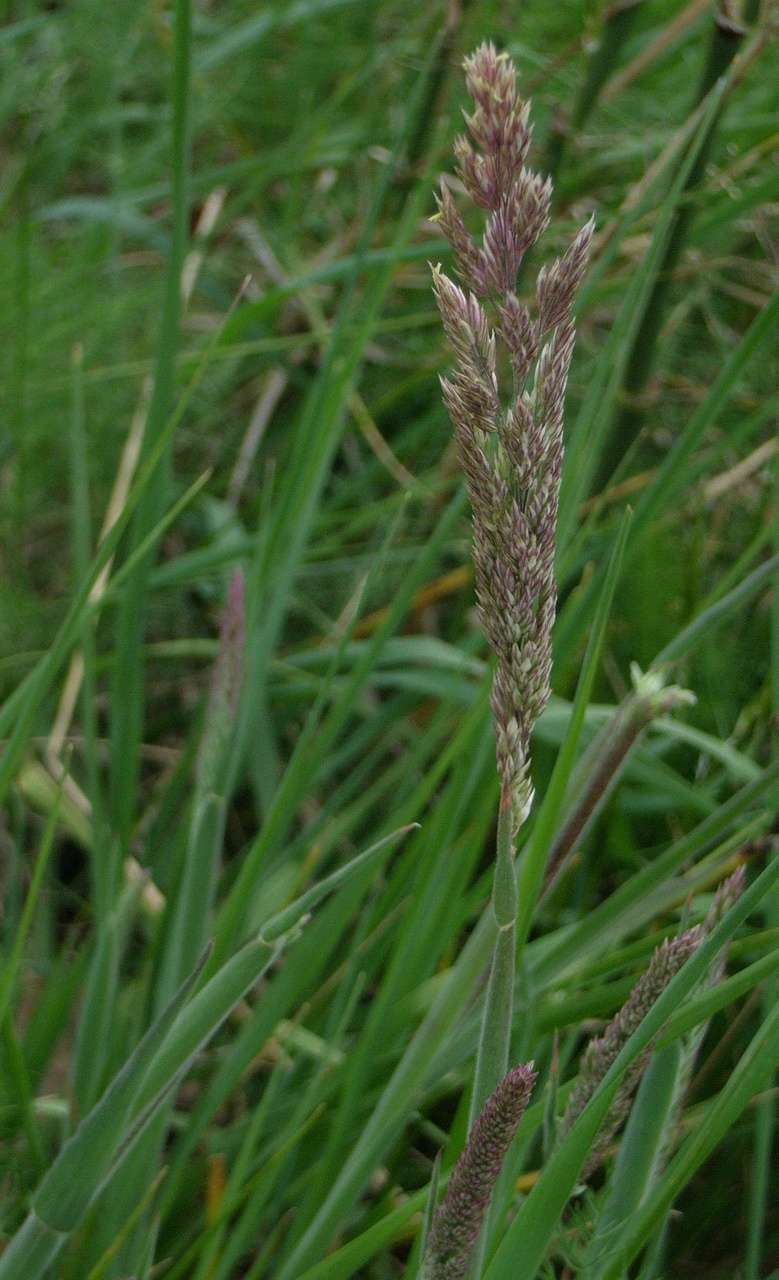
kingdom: Plantae
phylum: Tracheophyta
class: Liliopsida
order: Poales
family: Poaceae
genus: Holcus
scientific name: Holcus lanatus
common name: Yorkshire-fog
